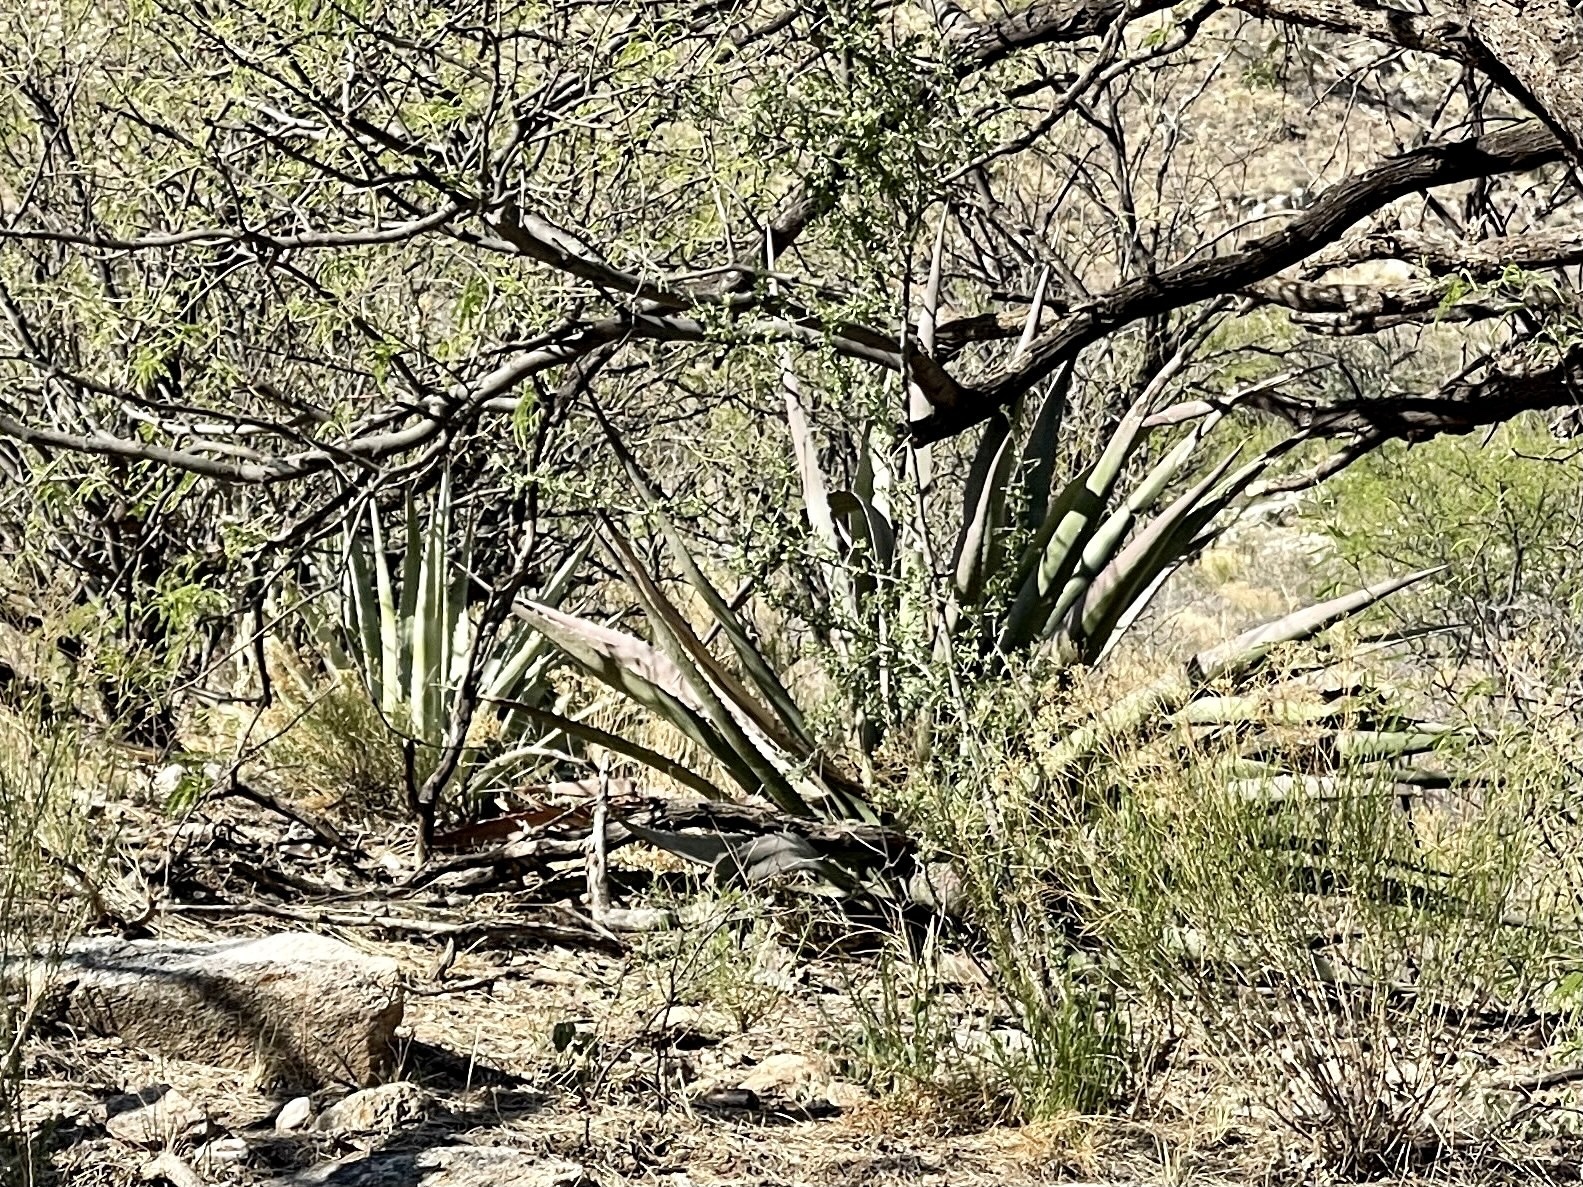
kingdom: Plantae
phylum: Tracheophyta
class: Liliopsida
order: Asparagales
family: Asparagaceae
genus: Agave
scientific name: Agave palmeri
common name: Palmer agave
